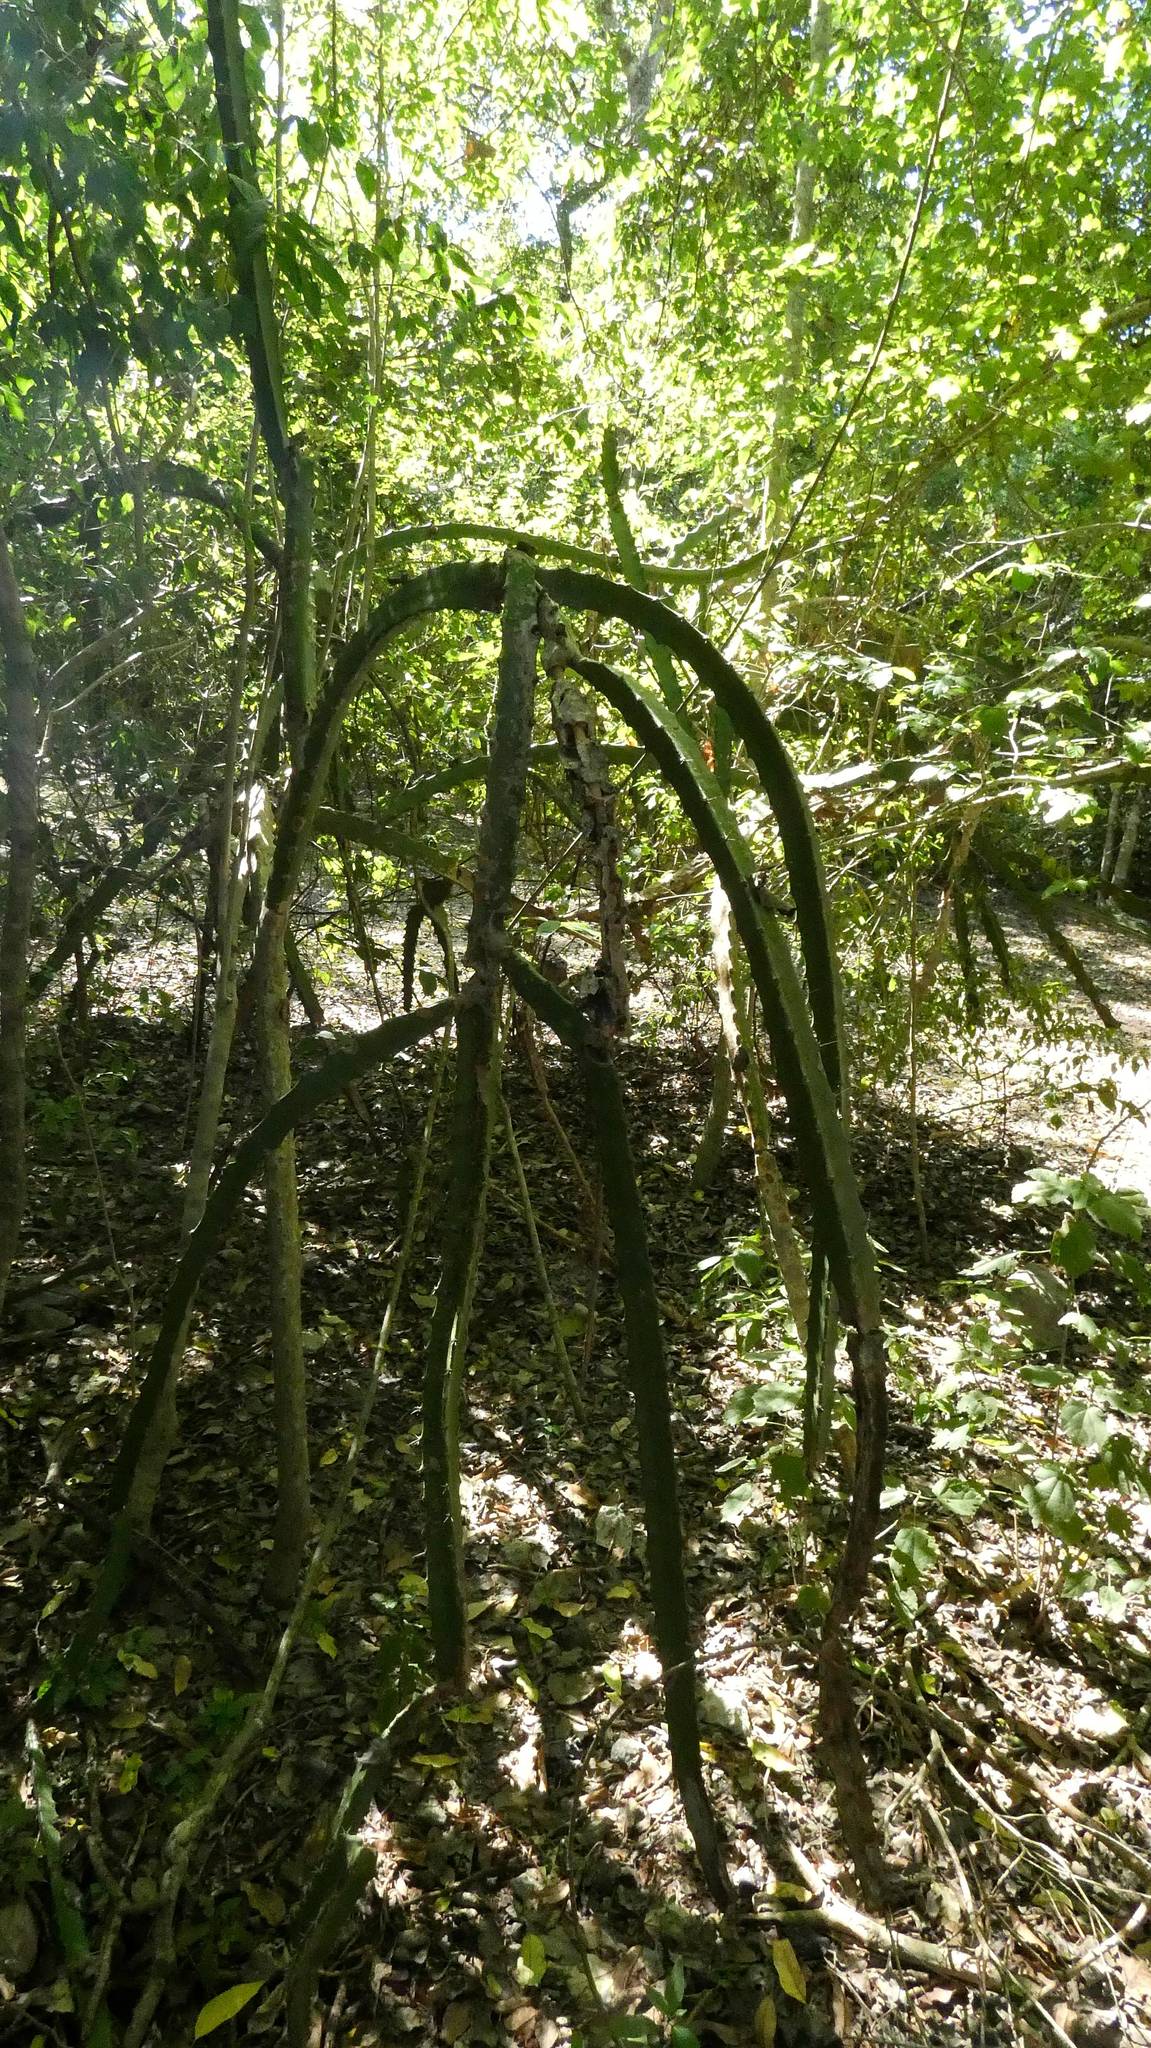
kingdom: Plantae
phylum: Tracheophyta
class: Magnoliopsida
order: Caryophyllales
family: Cactaceae
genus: Acanthocereus
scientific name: Acanthocereus tetragonus
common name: Triangle cactus
